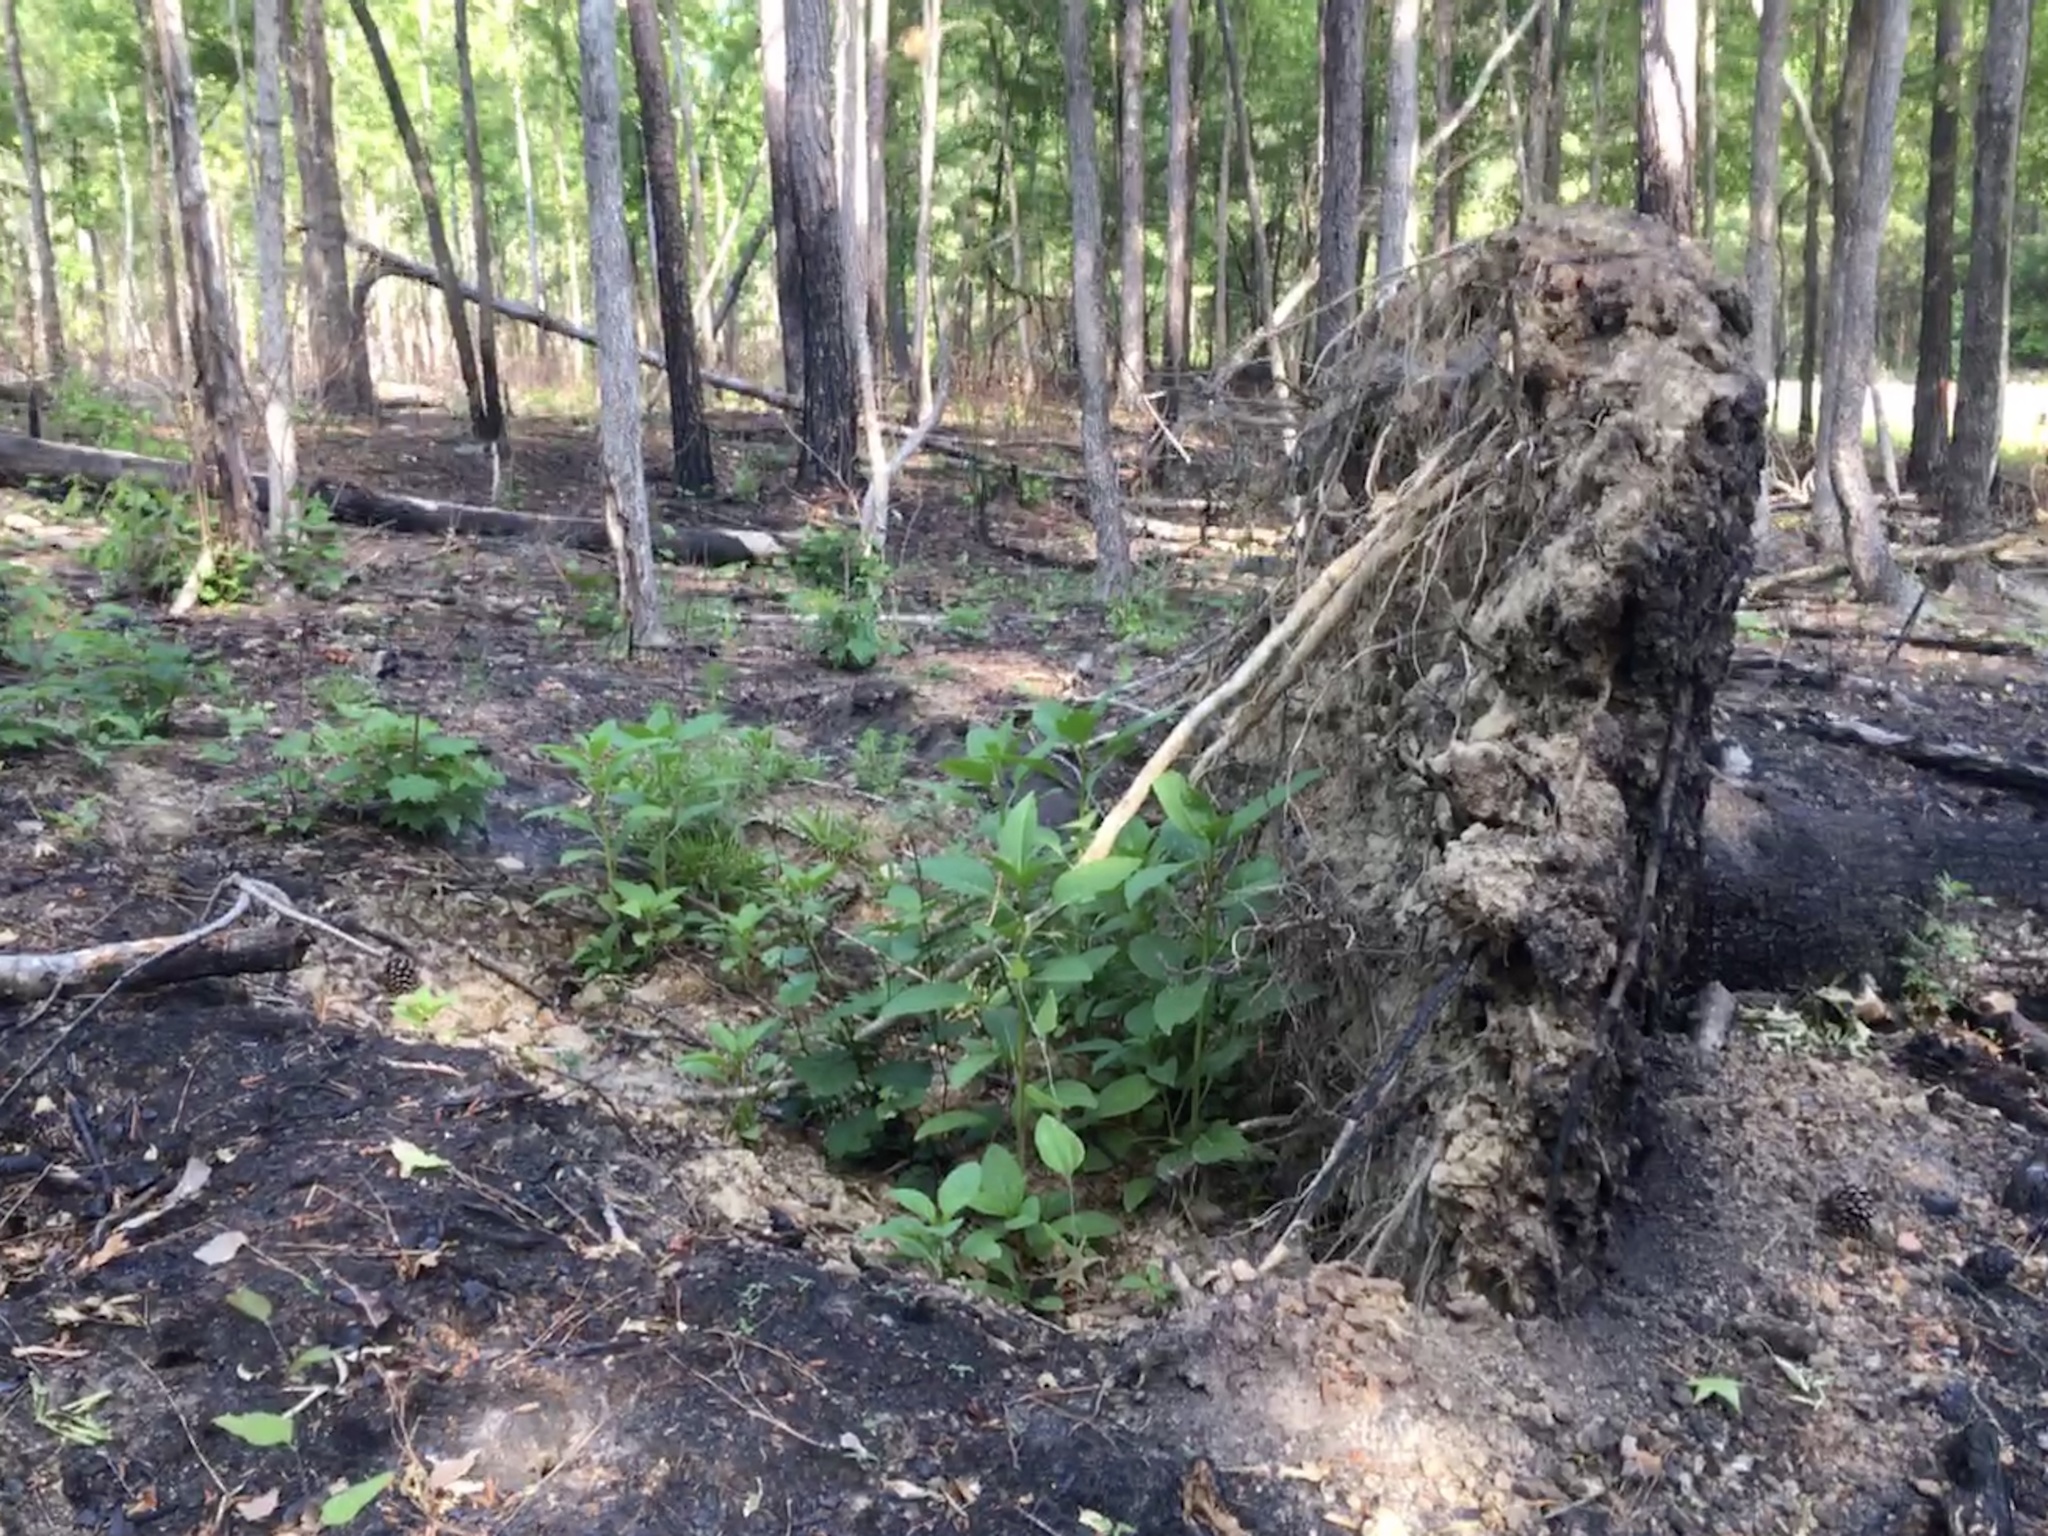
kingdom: Plantae
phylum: Tracheophyta
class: Magnoliopsida
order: Caryophyllales
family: Phytolaccaceae
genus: Phytolacca
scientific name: Phytolacca americana
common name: American pokeweed
